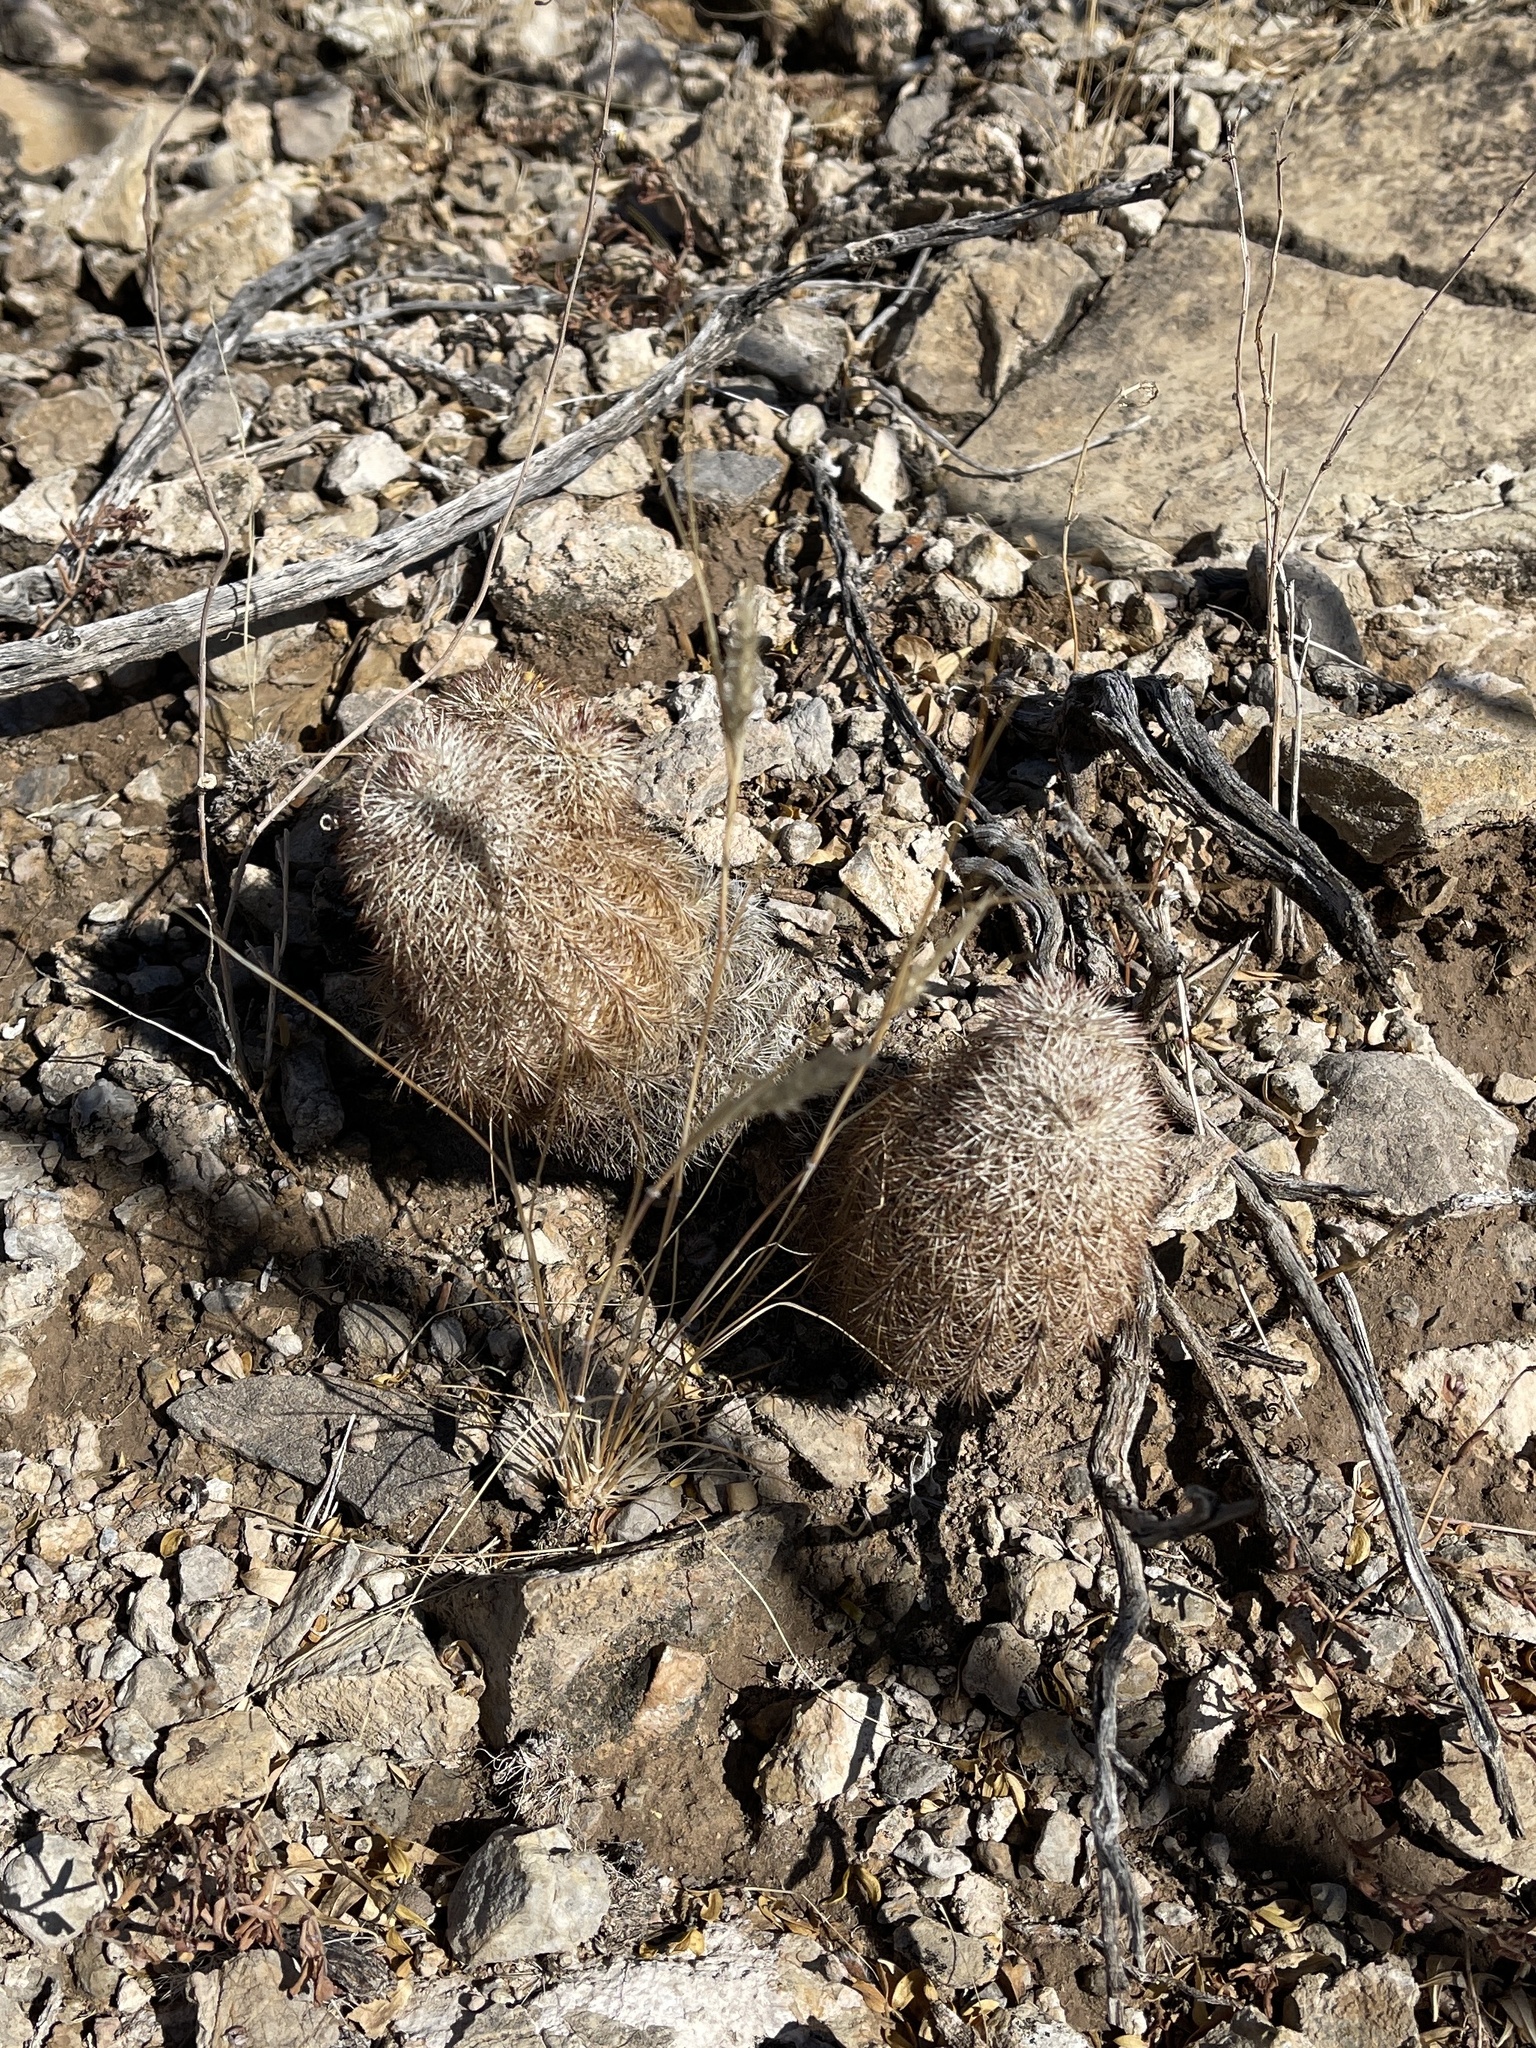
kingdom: Plantae
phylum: Tracheophyta
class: Magnoliopsida
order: Caryophyllales
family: Cactaceae
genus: Echinocereus
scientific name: Echinocereus dasyacanthus
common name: Spiny hedgehog cactus
